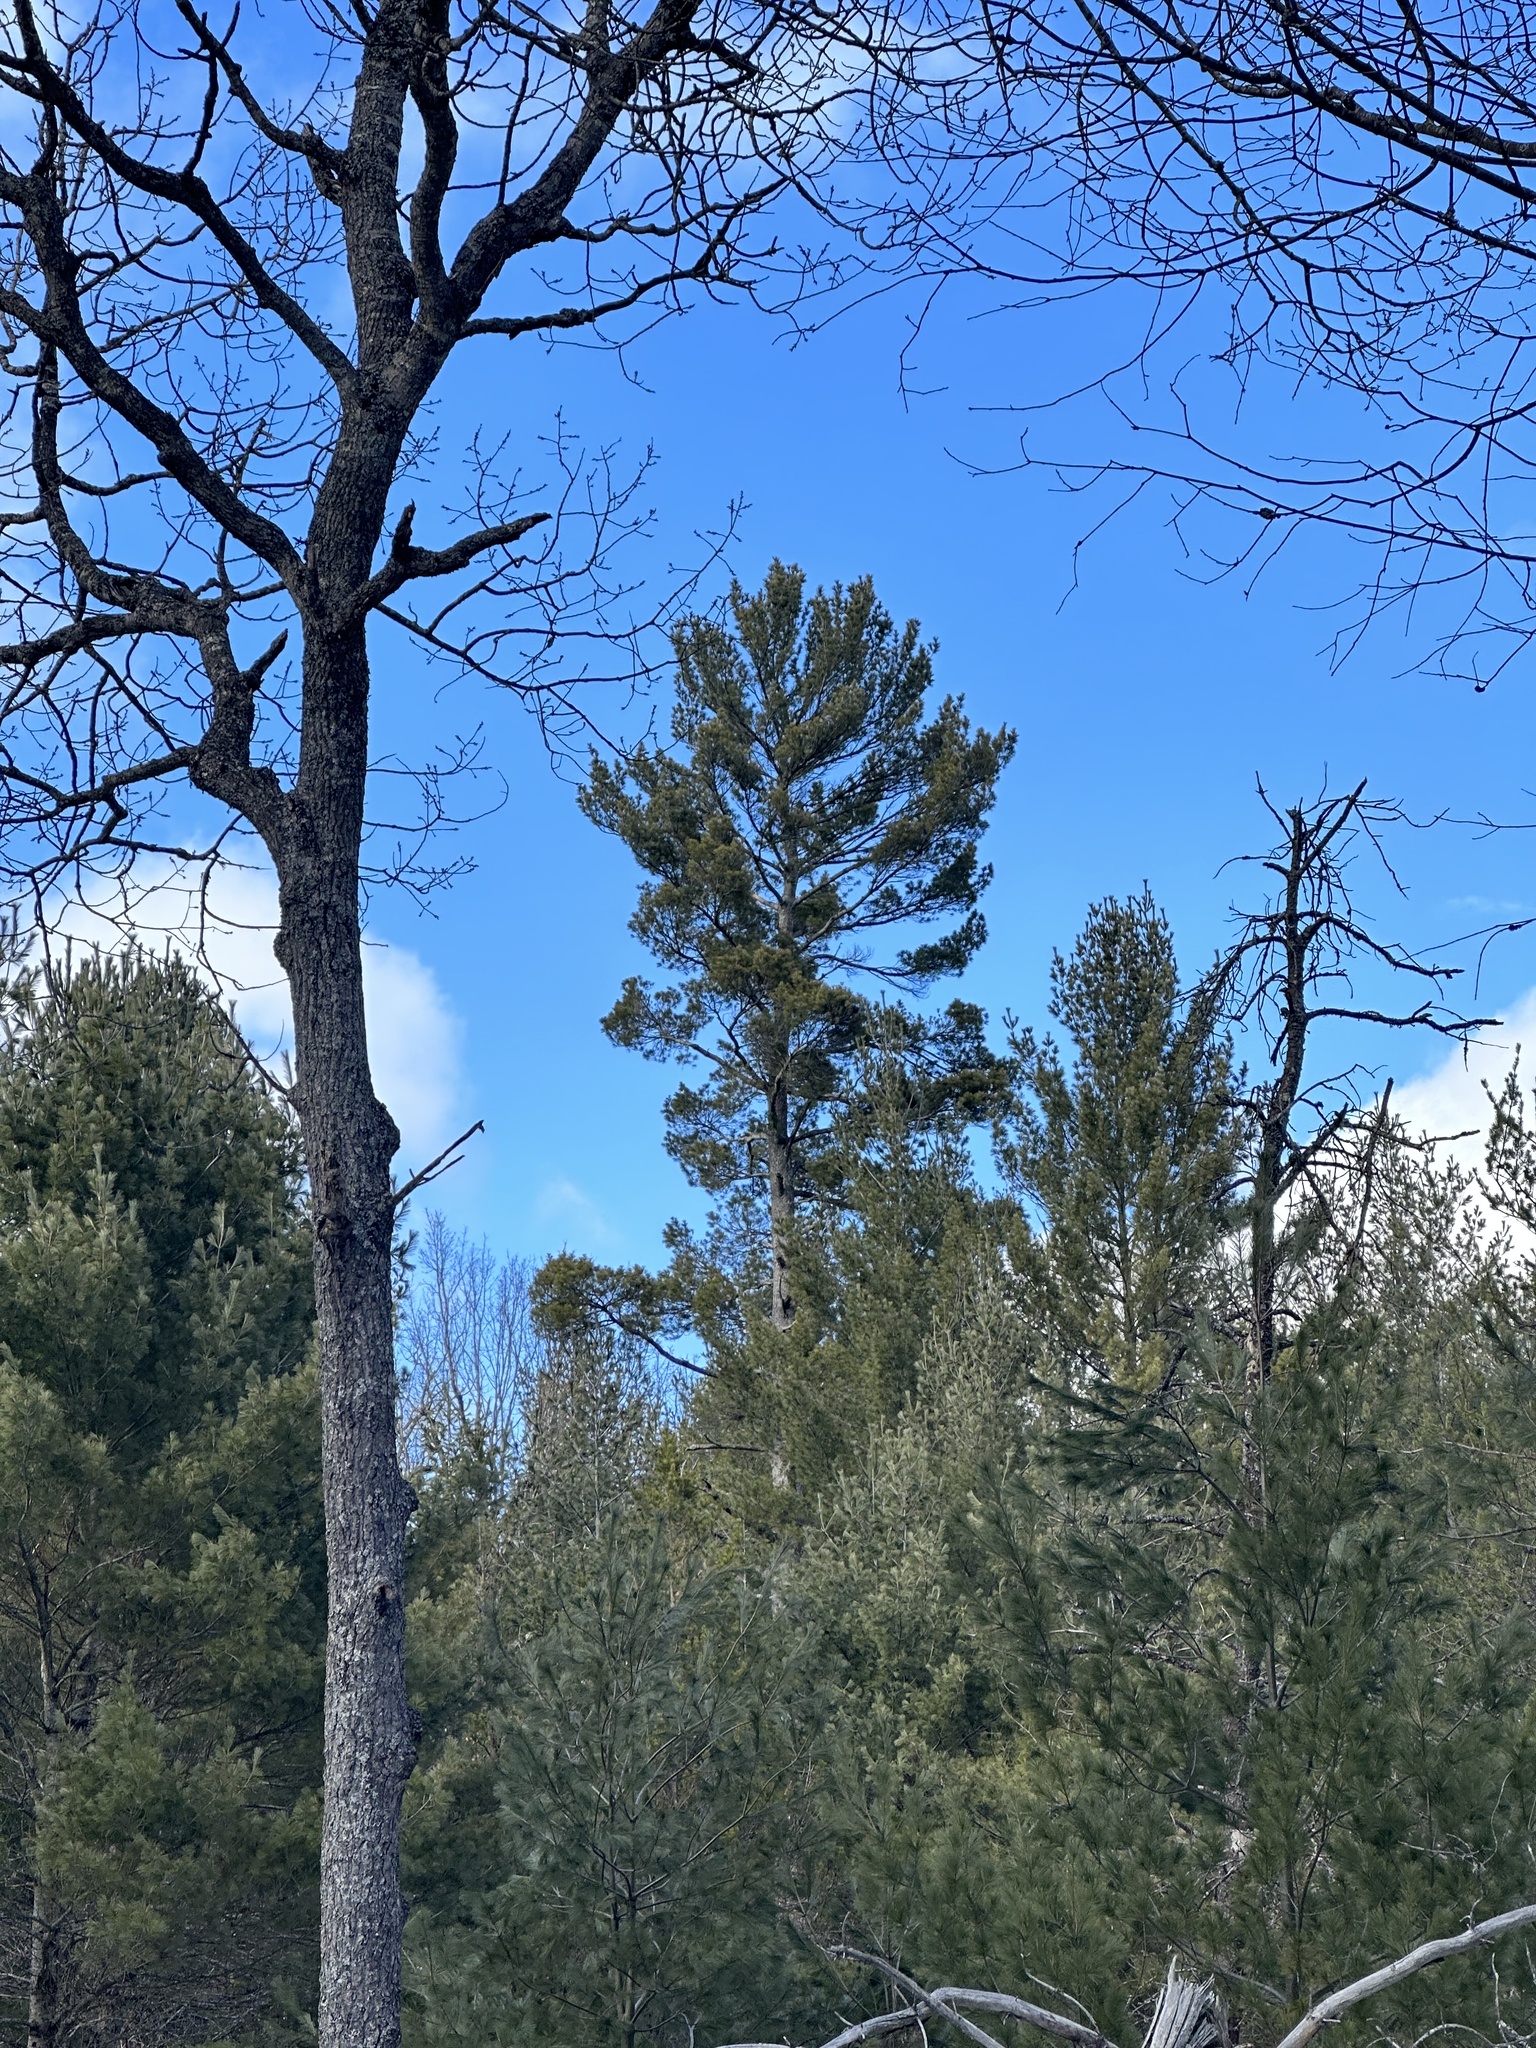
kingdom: Plantae
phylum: Tracheophyta
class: Pinopsida
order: Pinales
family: Pinaceae
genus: Pinus
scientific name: Pinus strobus
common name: Weymouth pine
